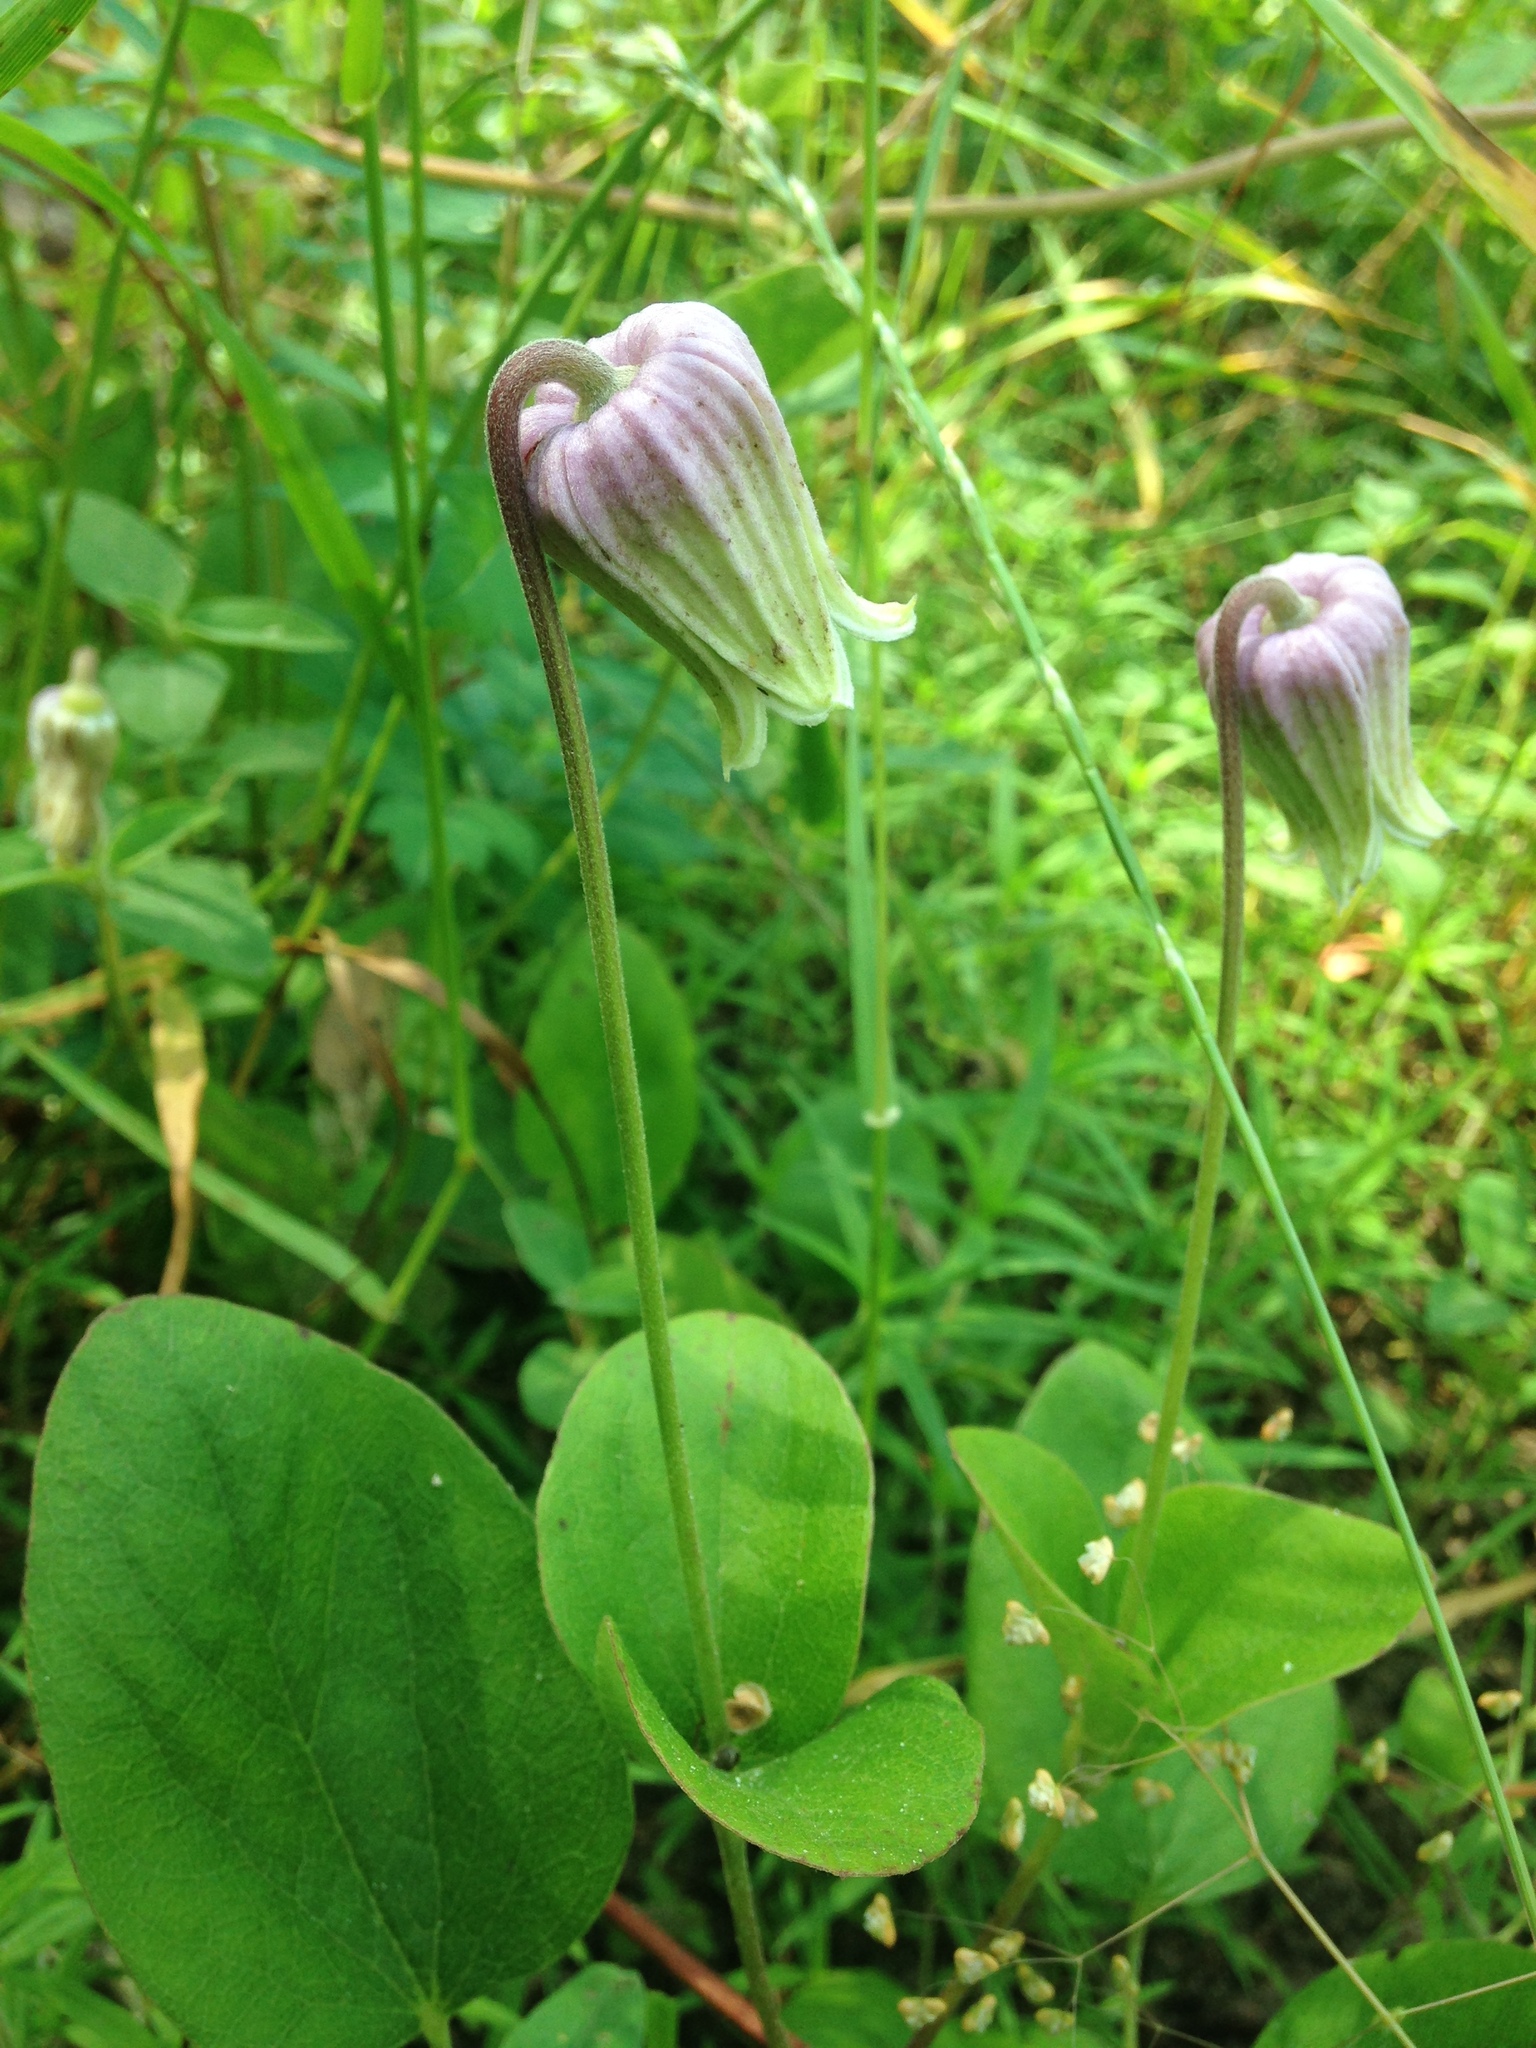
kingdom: Plantae
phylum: Tracheophyta
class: Magnoliopsida
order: Ranunculales
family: Ranunculaceae
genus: Clematis
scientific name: Clematis arenicola
